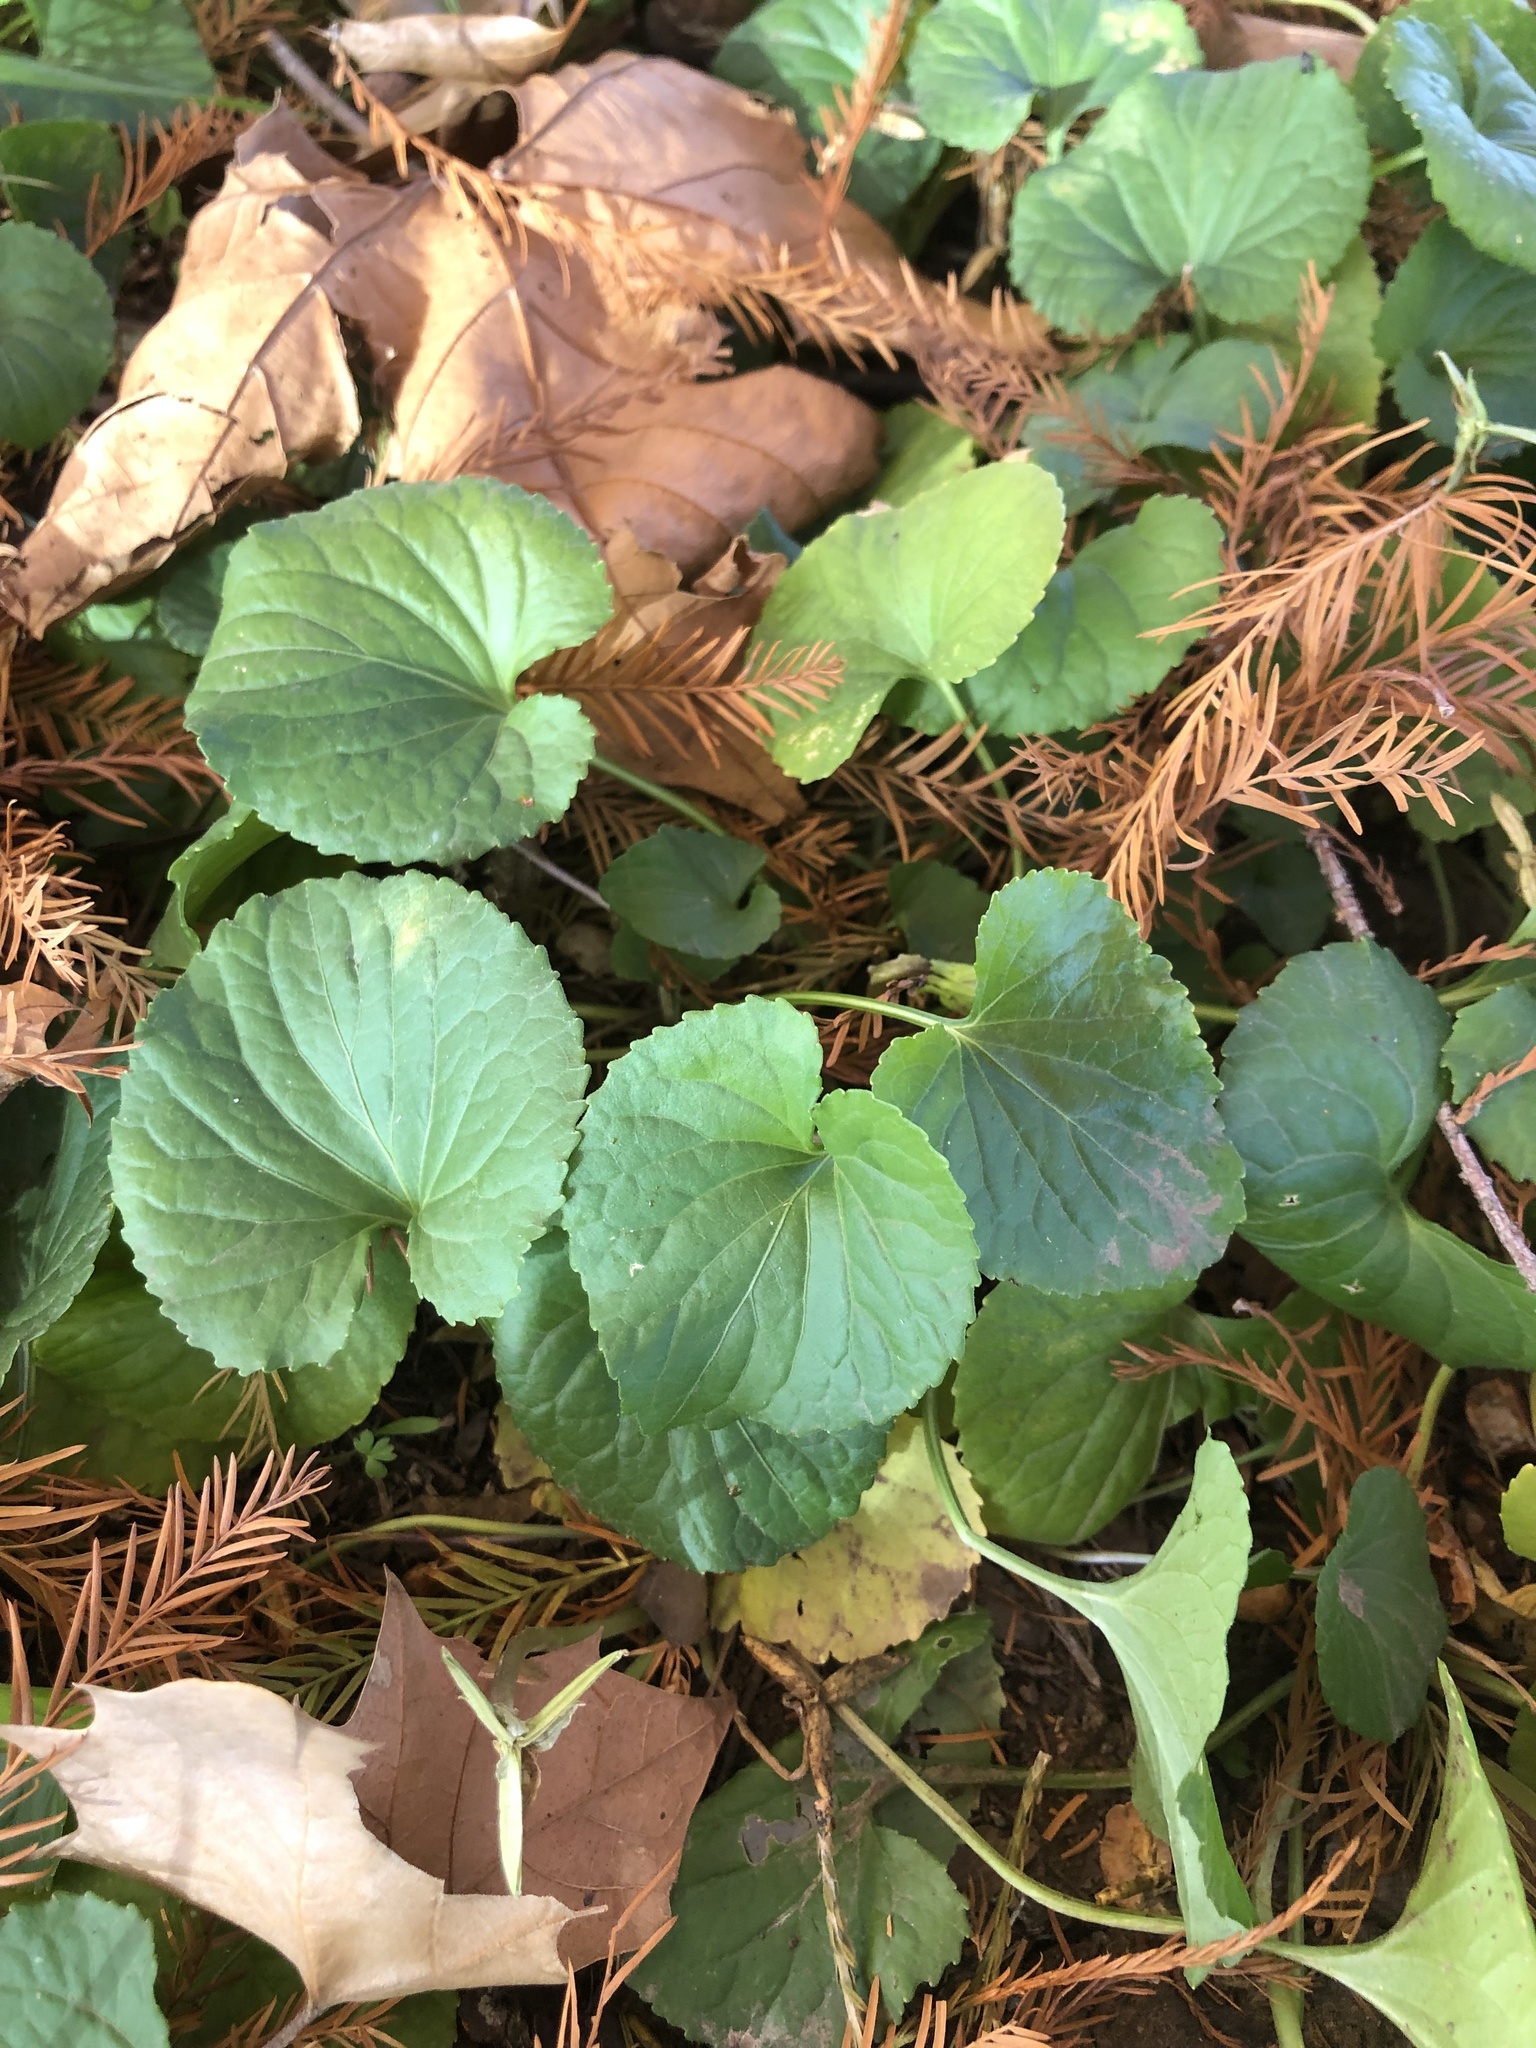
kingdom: Plantae
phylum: Tracheophyta
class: Magnoliopsida
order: Malpighiales
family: Violaceae
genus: Viola
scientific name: Viola sororia
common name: Dooryard violet
